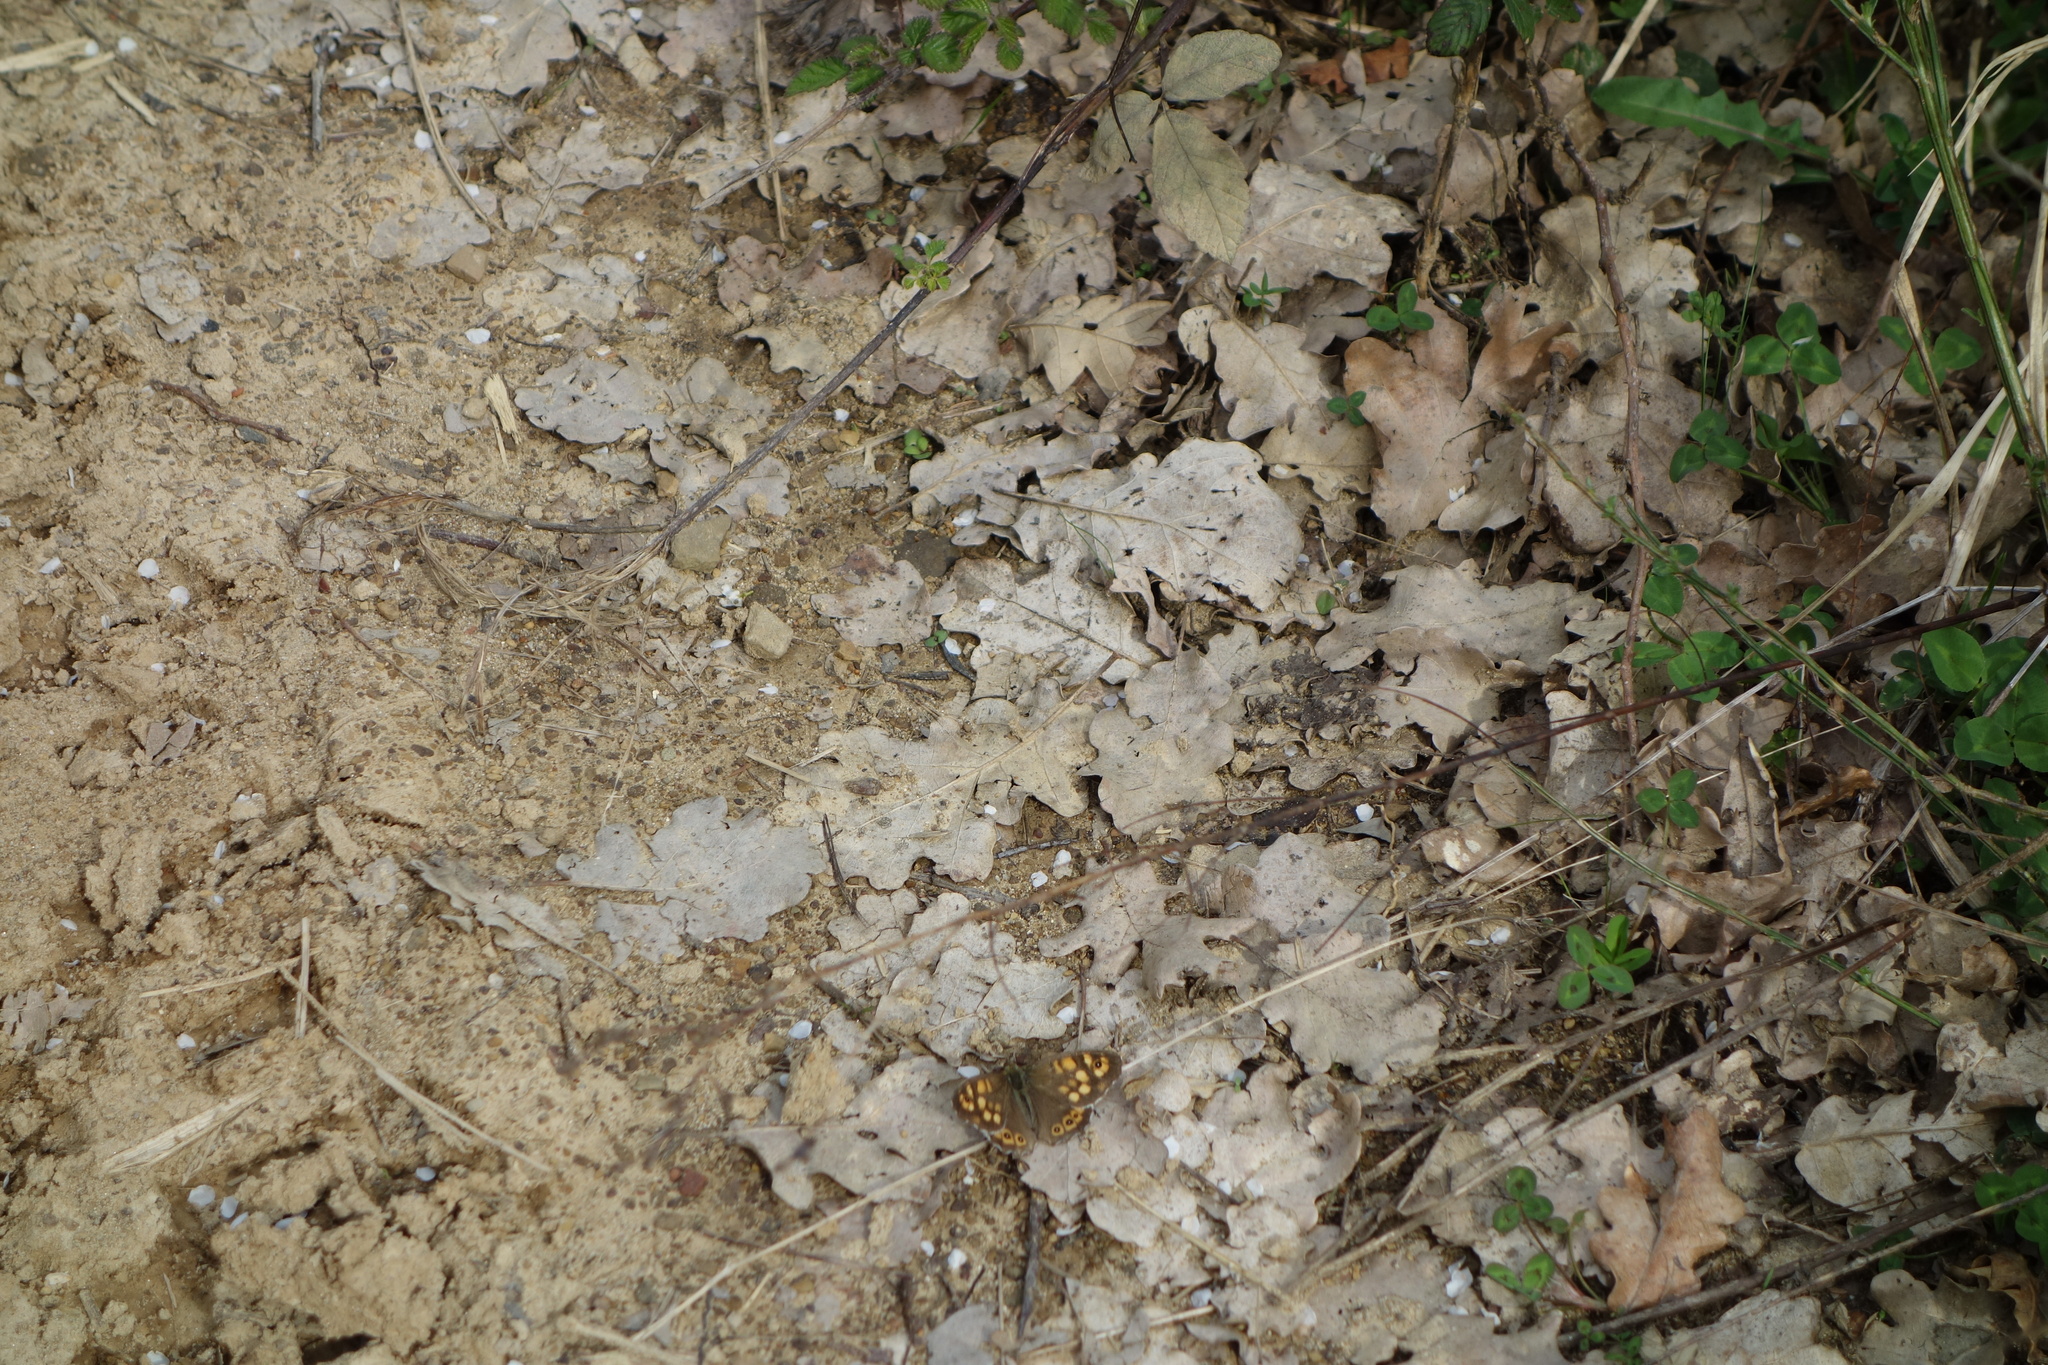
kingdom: Animalia
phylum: Arthropoda
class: Insecta
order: Lepidoptera
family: Nymphalidae
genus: Pararge
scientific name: Pararge aegeria
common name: Speckled wood
